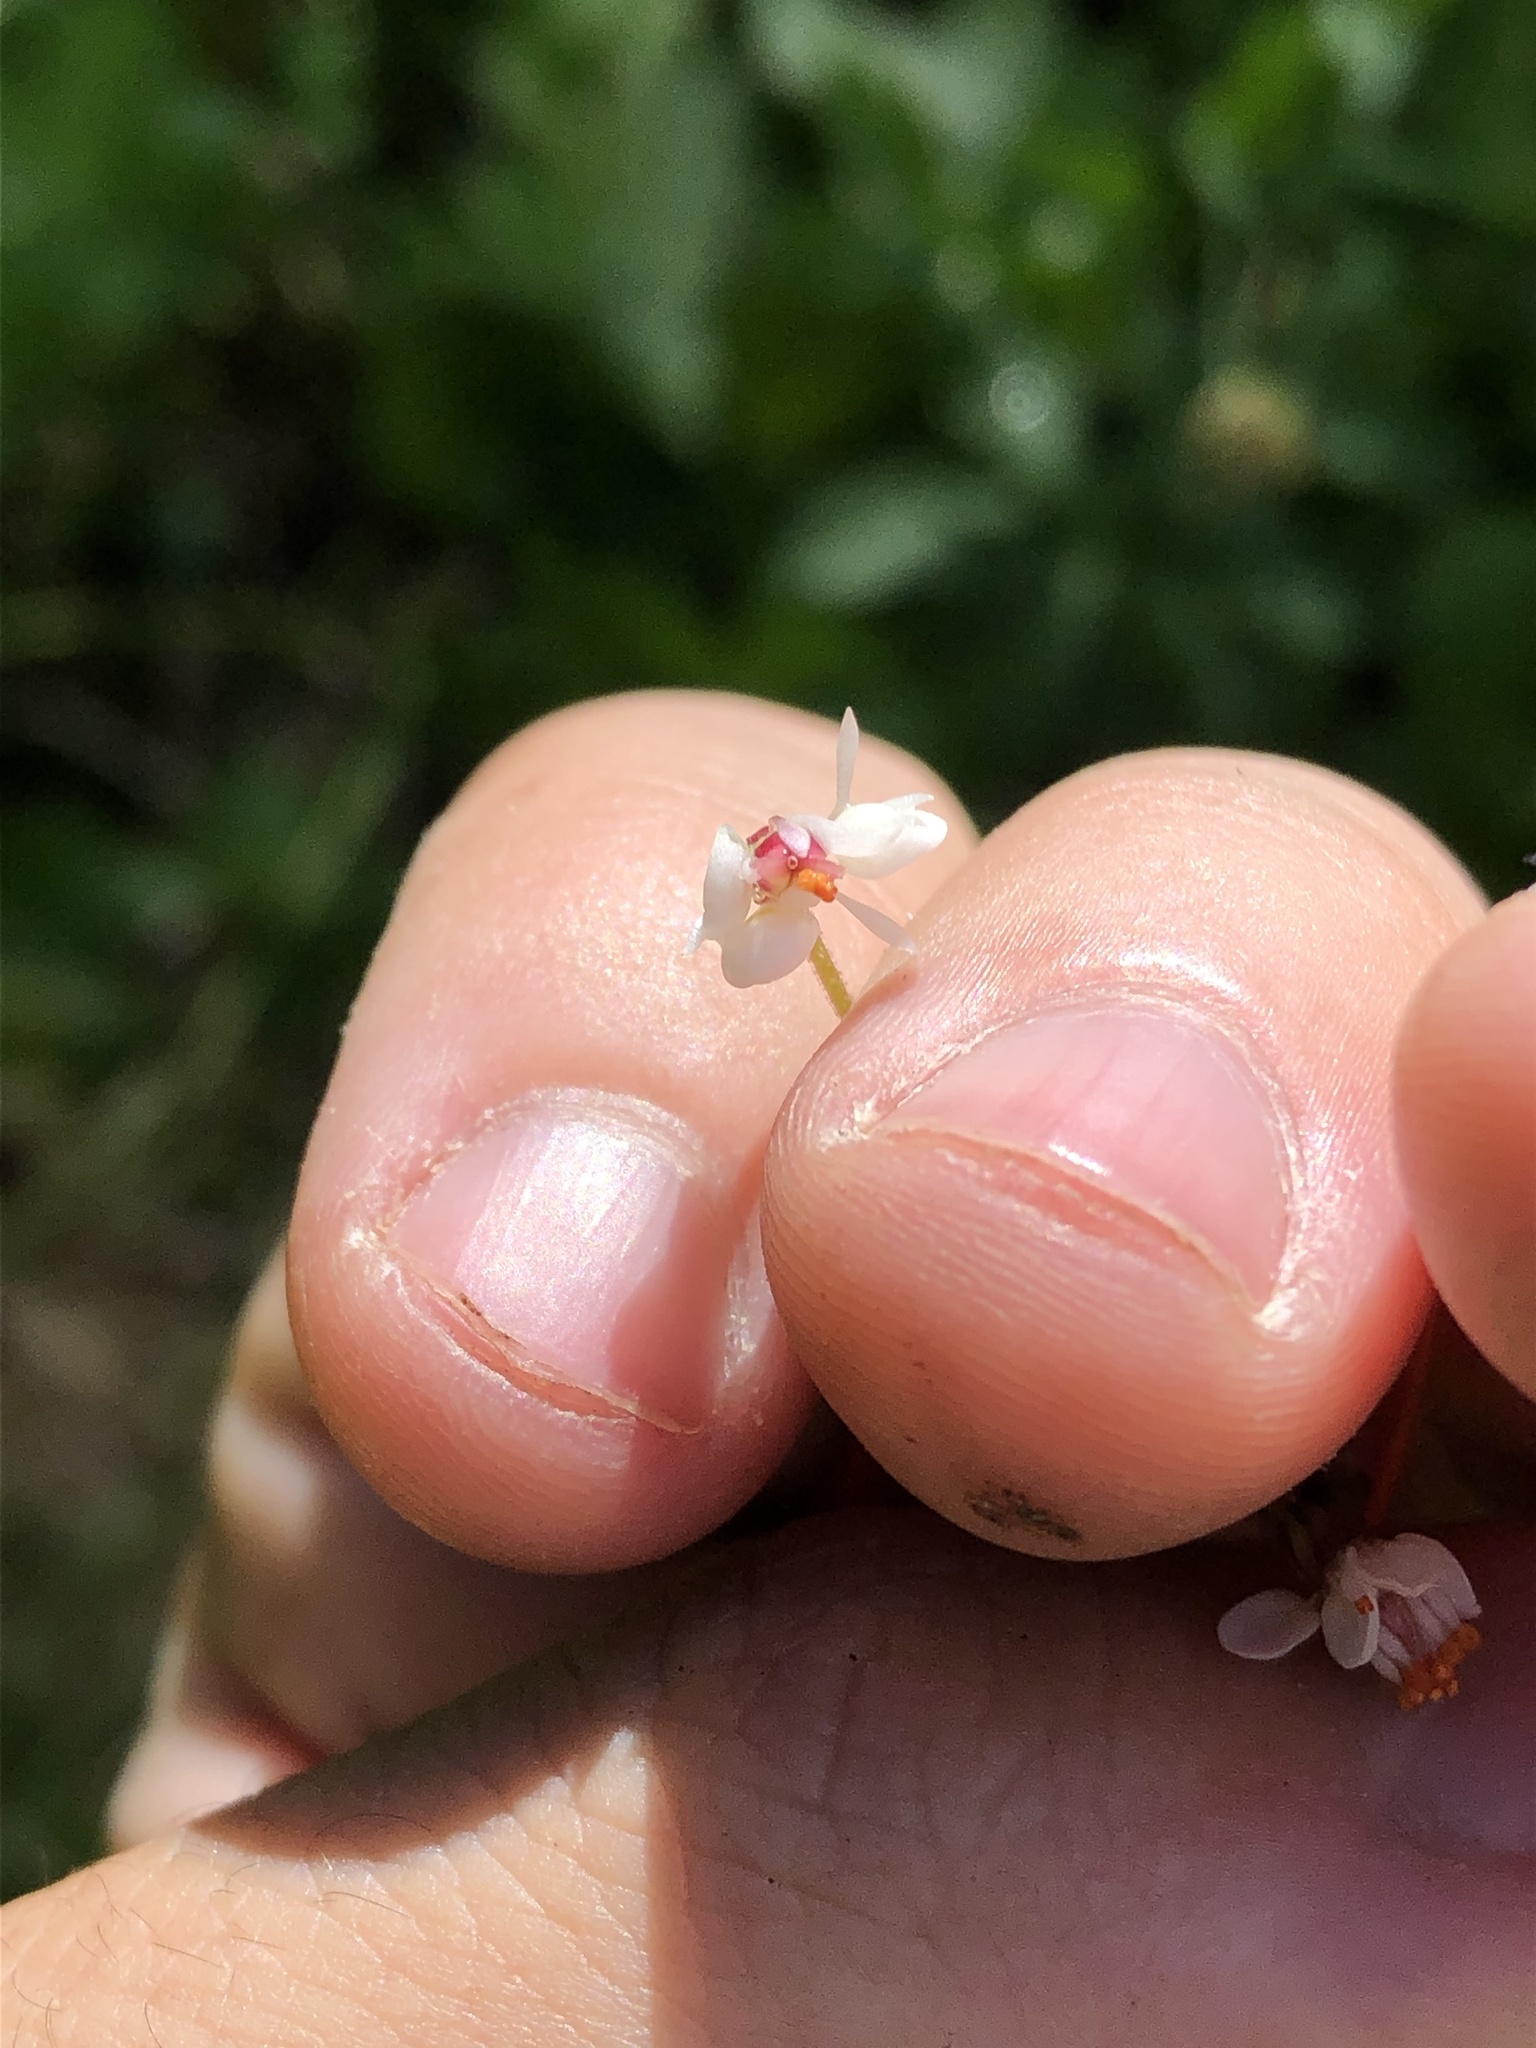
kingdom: Plantae
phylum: Tracheophyta
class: Magnoliopsida
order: Saxifragales
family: Saxifragaceae
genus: Micranthes
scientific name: Micranthes odontoloma
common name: Brook saxifrage
